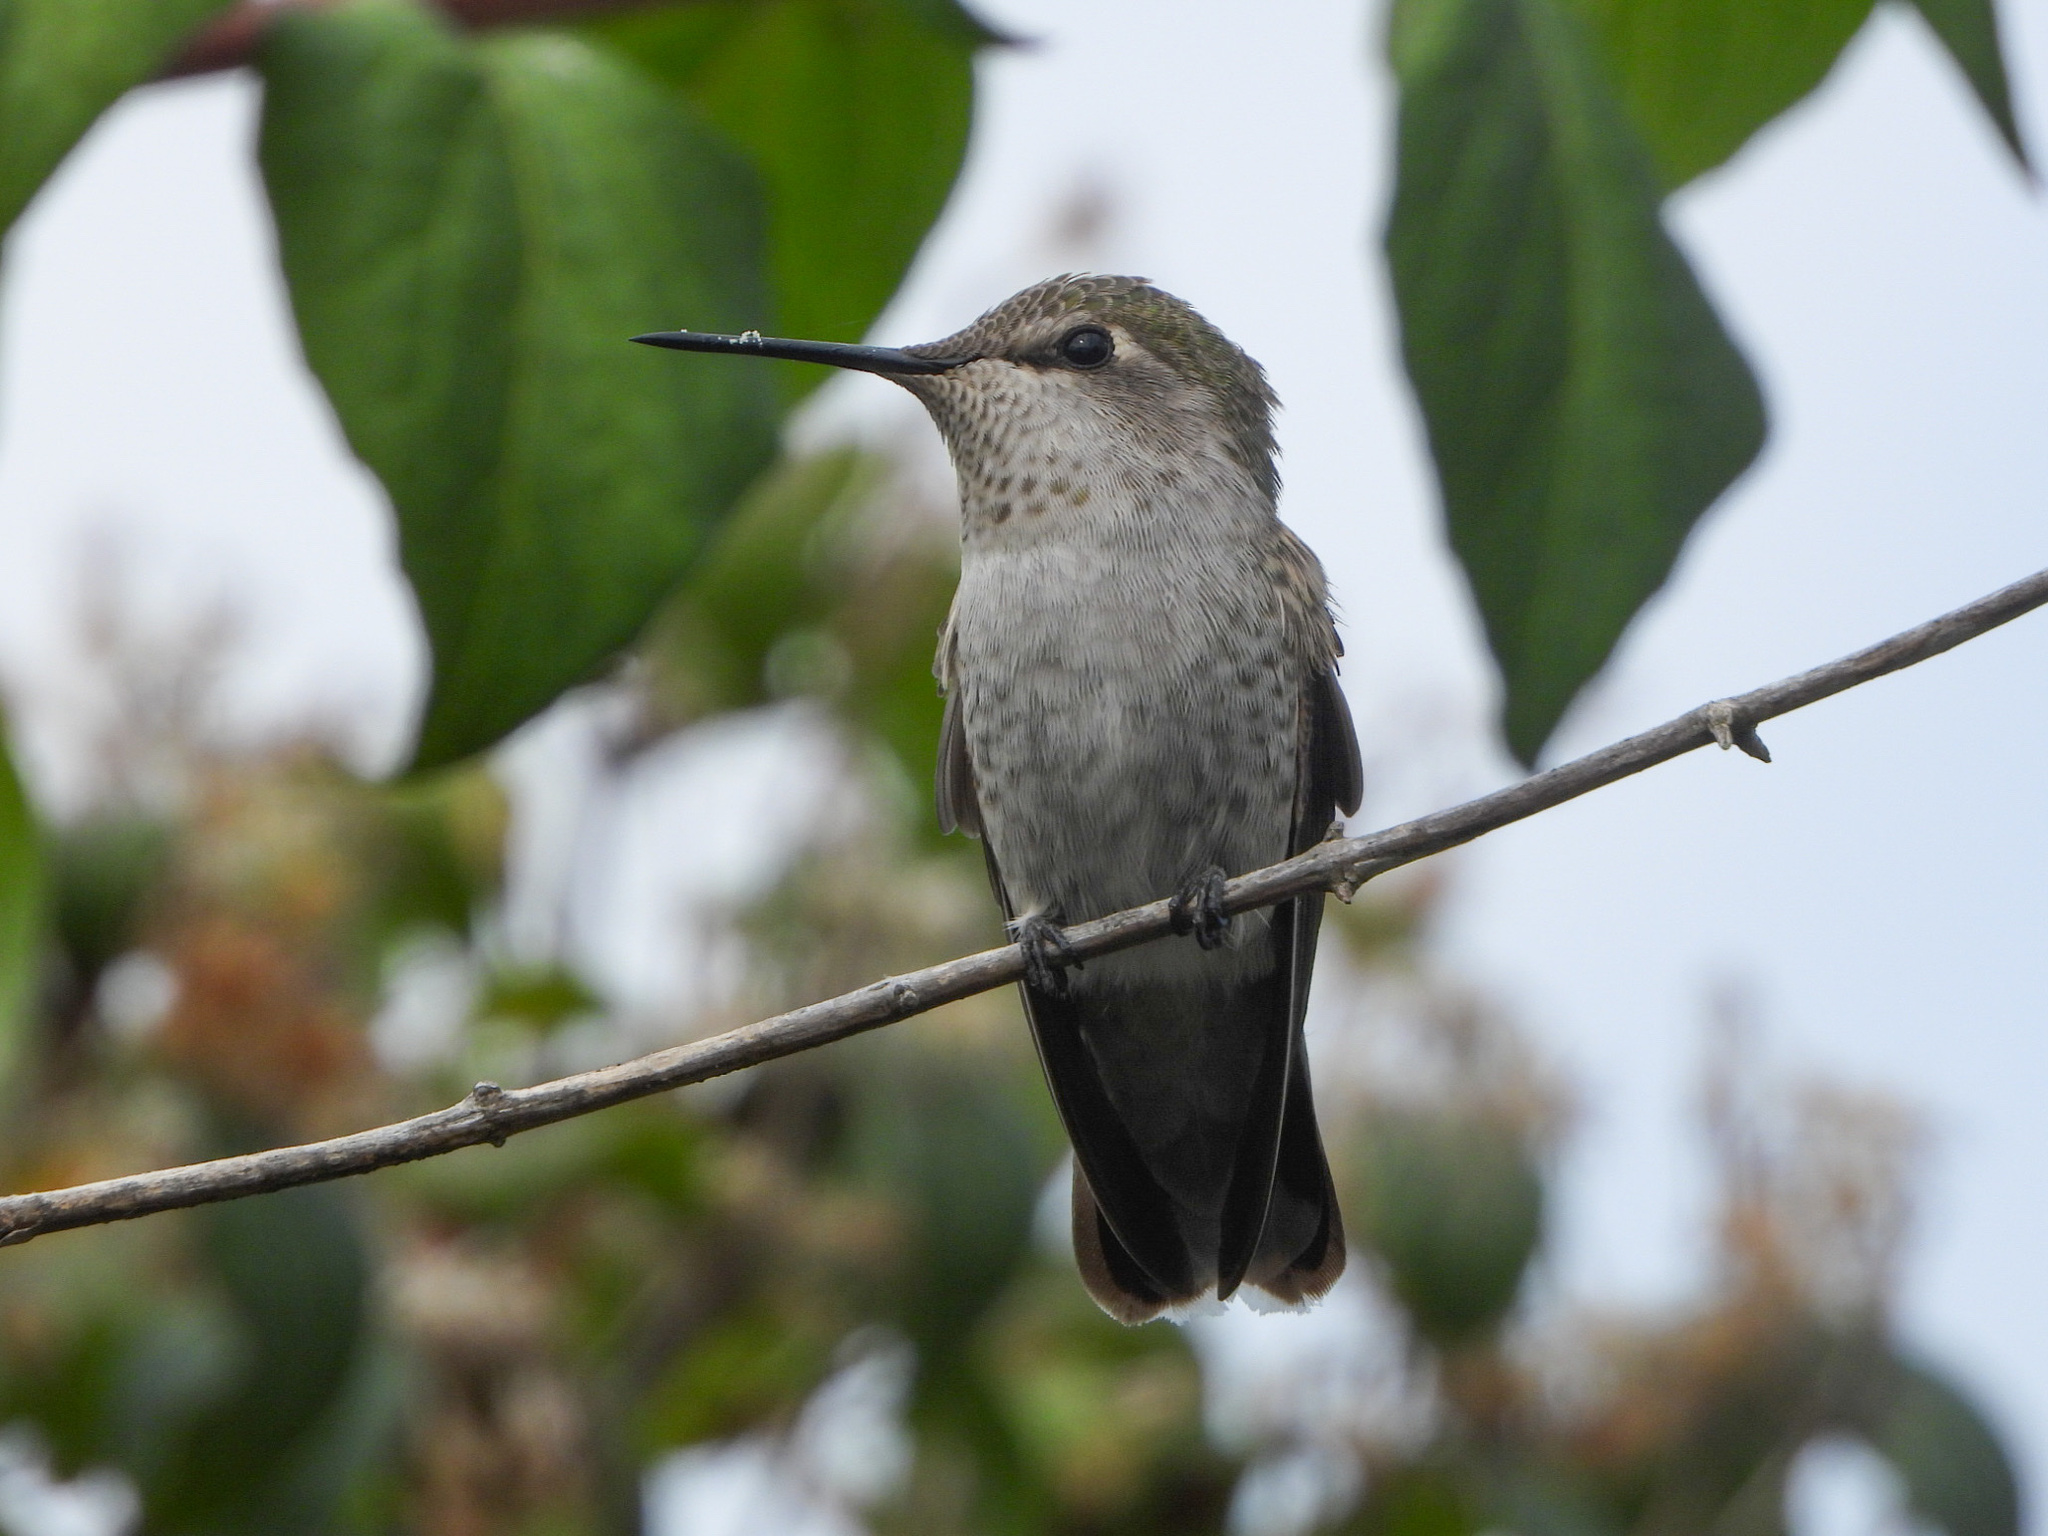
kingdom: Animalia
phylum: Chordata
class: Aves
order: Apodiformes
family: Trochilidae
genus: Calypte
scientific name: Calypte anna
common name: Anna's hummingbird
